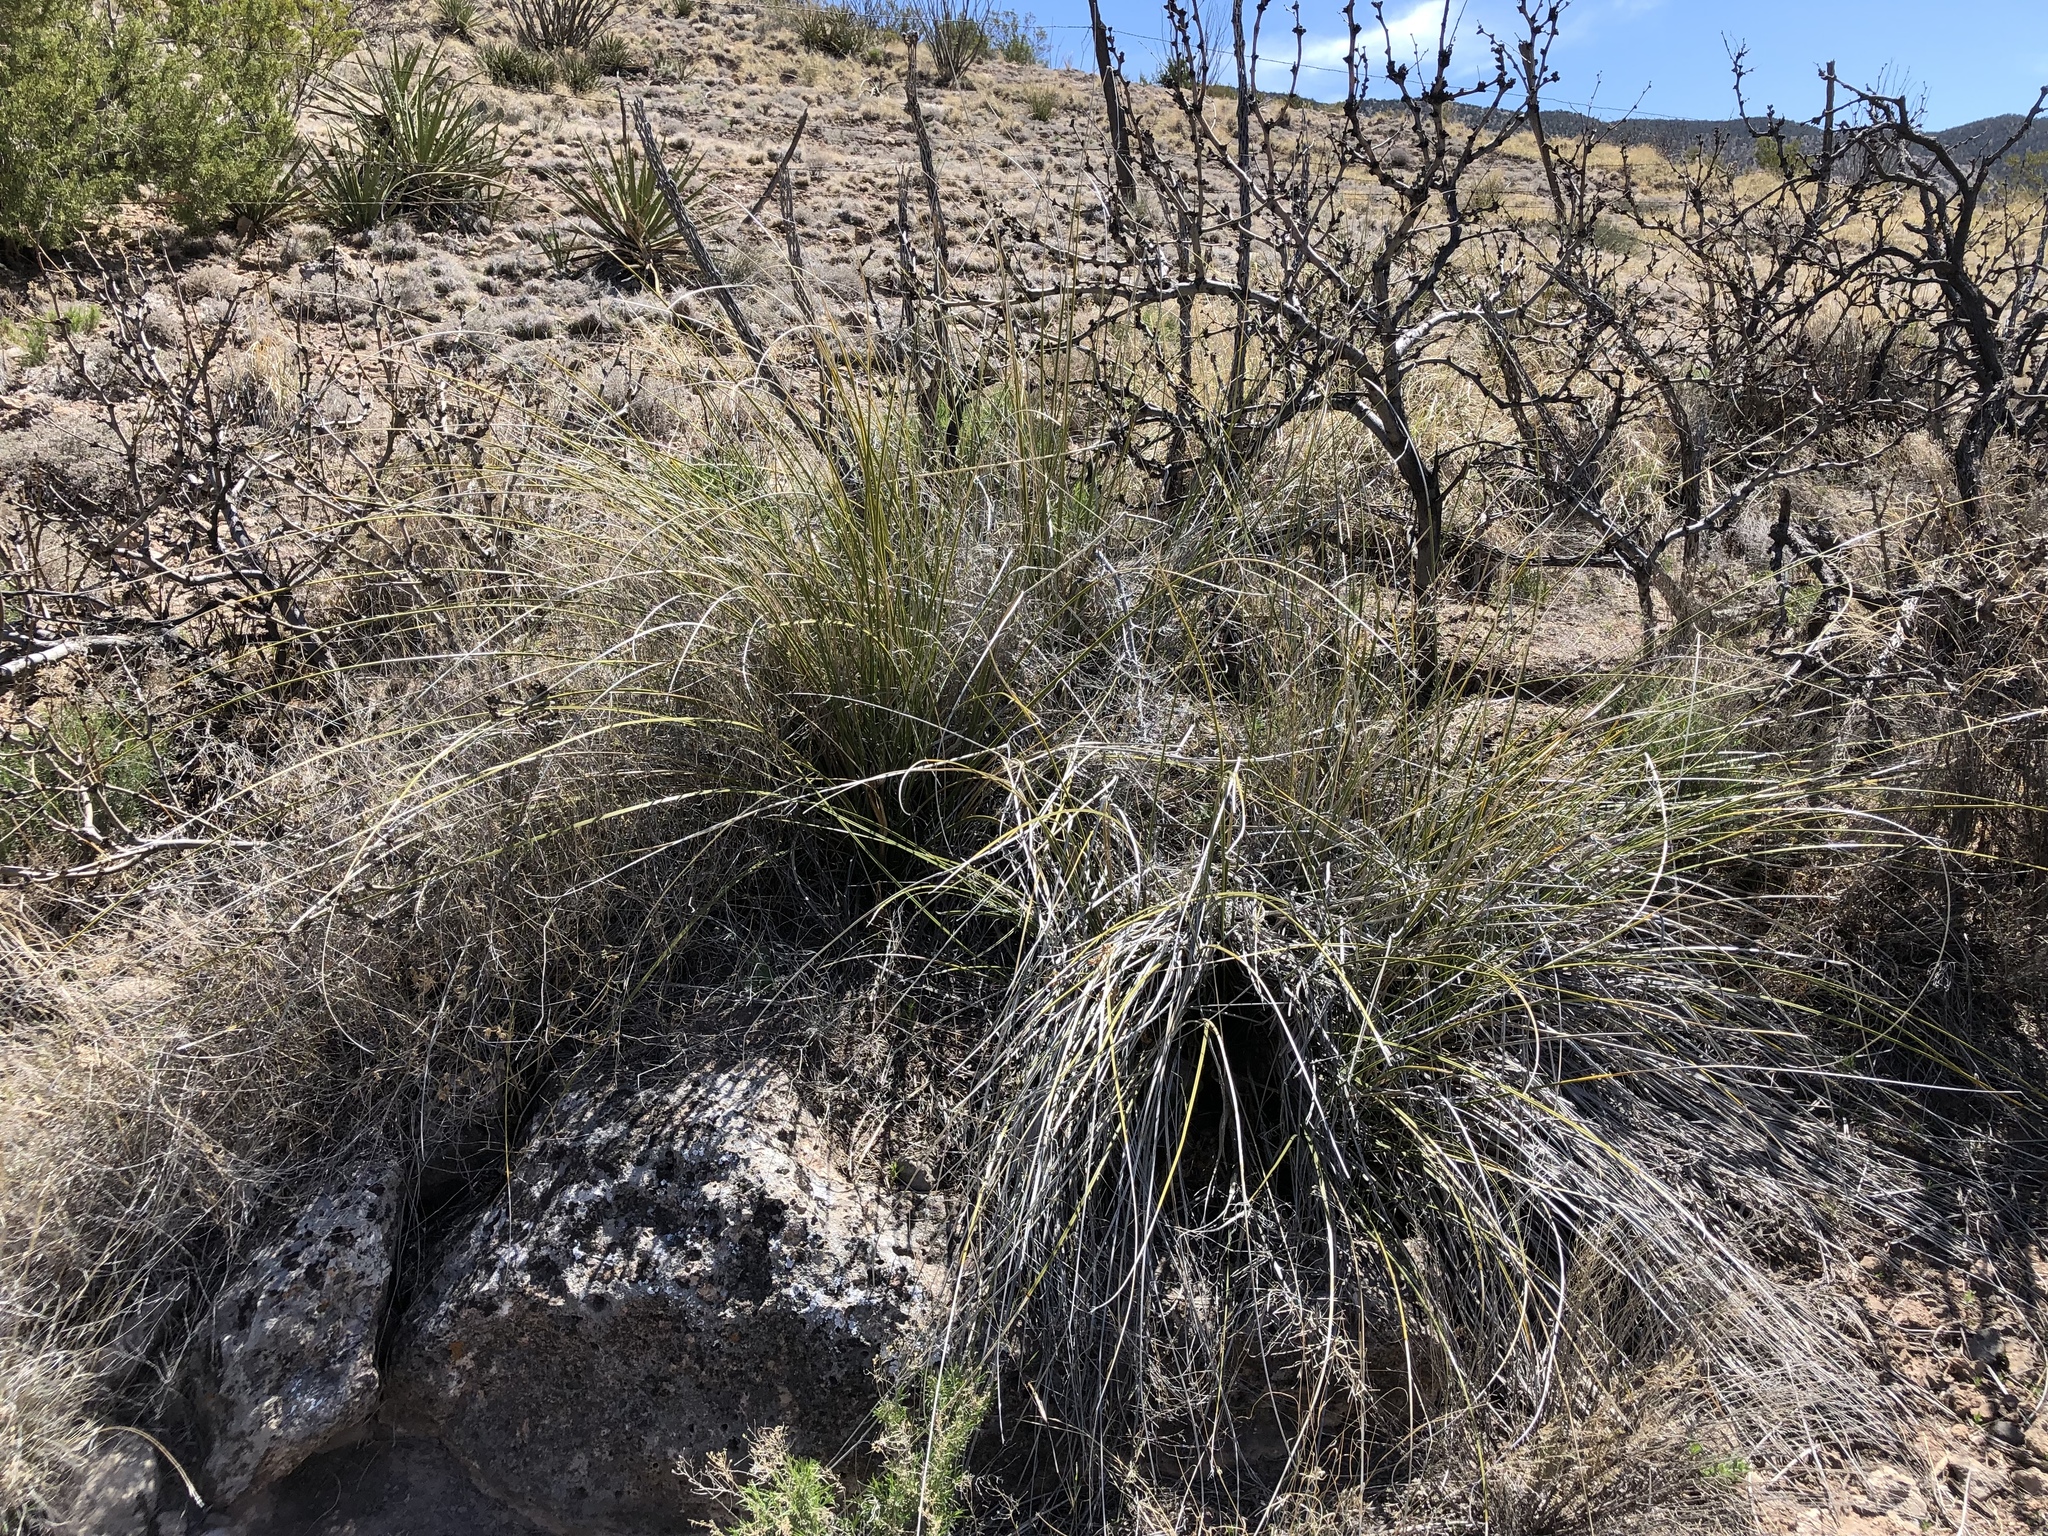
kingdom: Plantae
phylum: Tracheophyta
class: Liliopsida
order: Asparagales
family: Asparagaceae
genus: Nolina
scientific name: Nolina microcarpa
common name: Bear-grass
